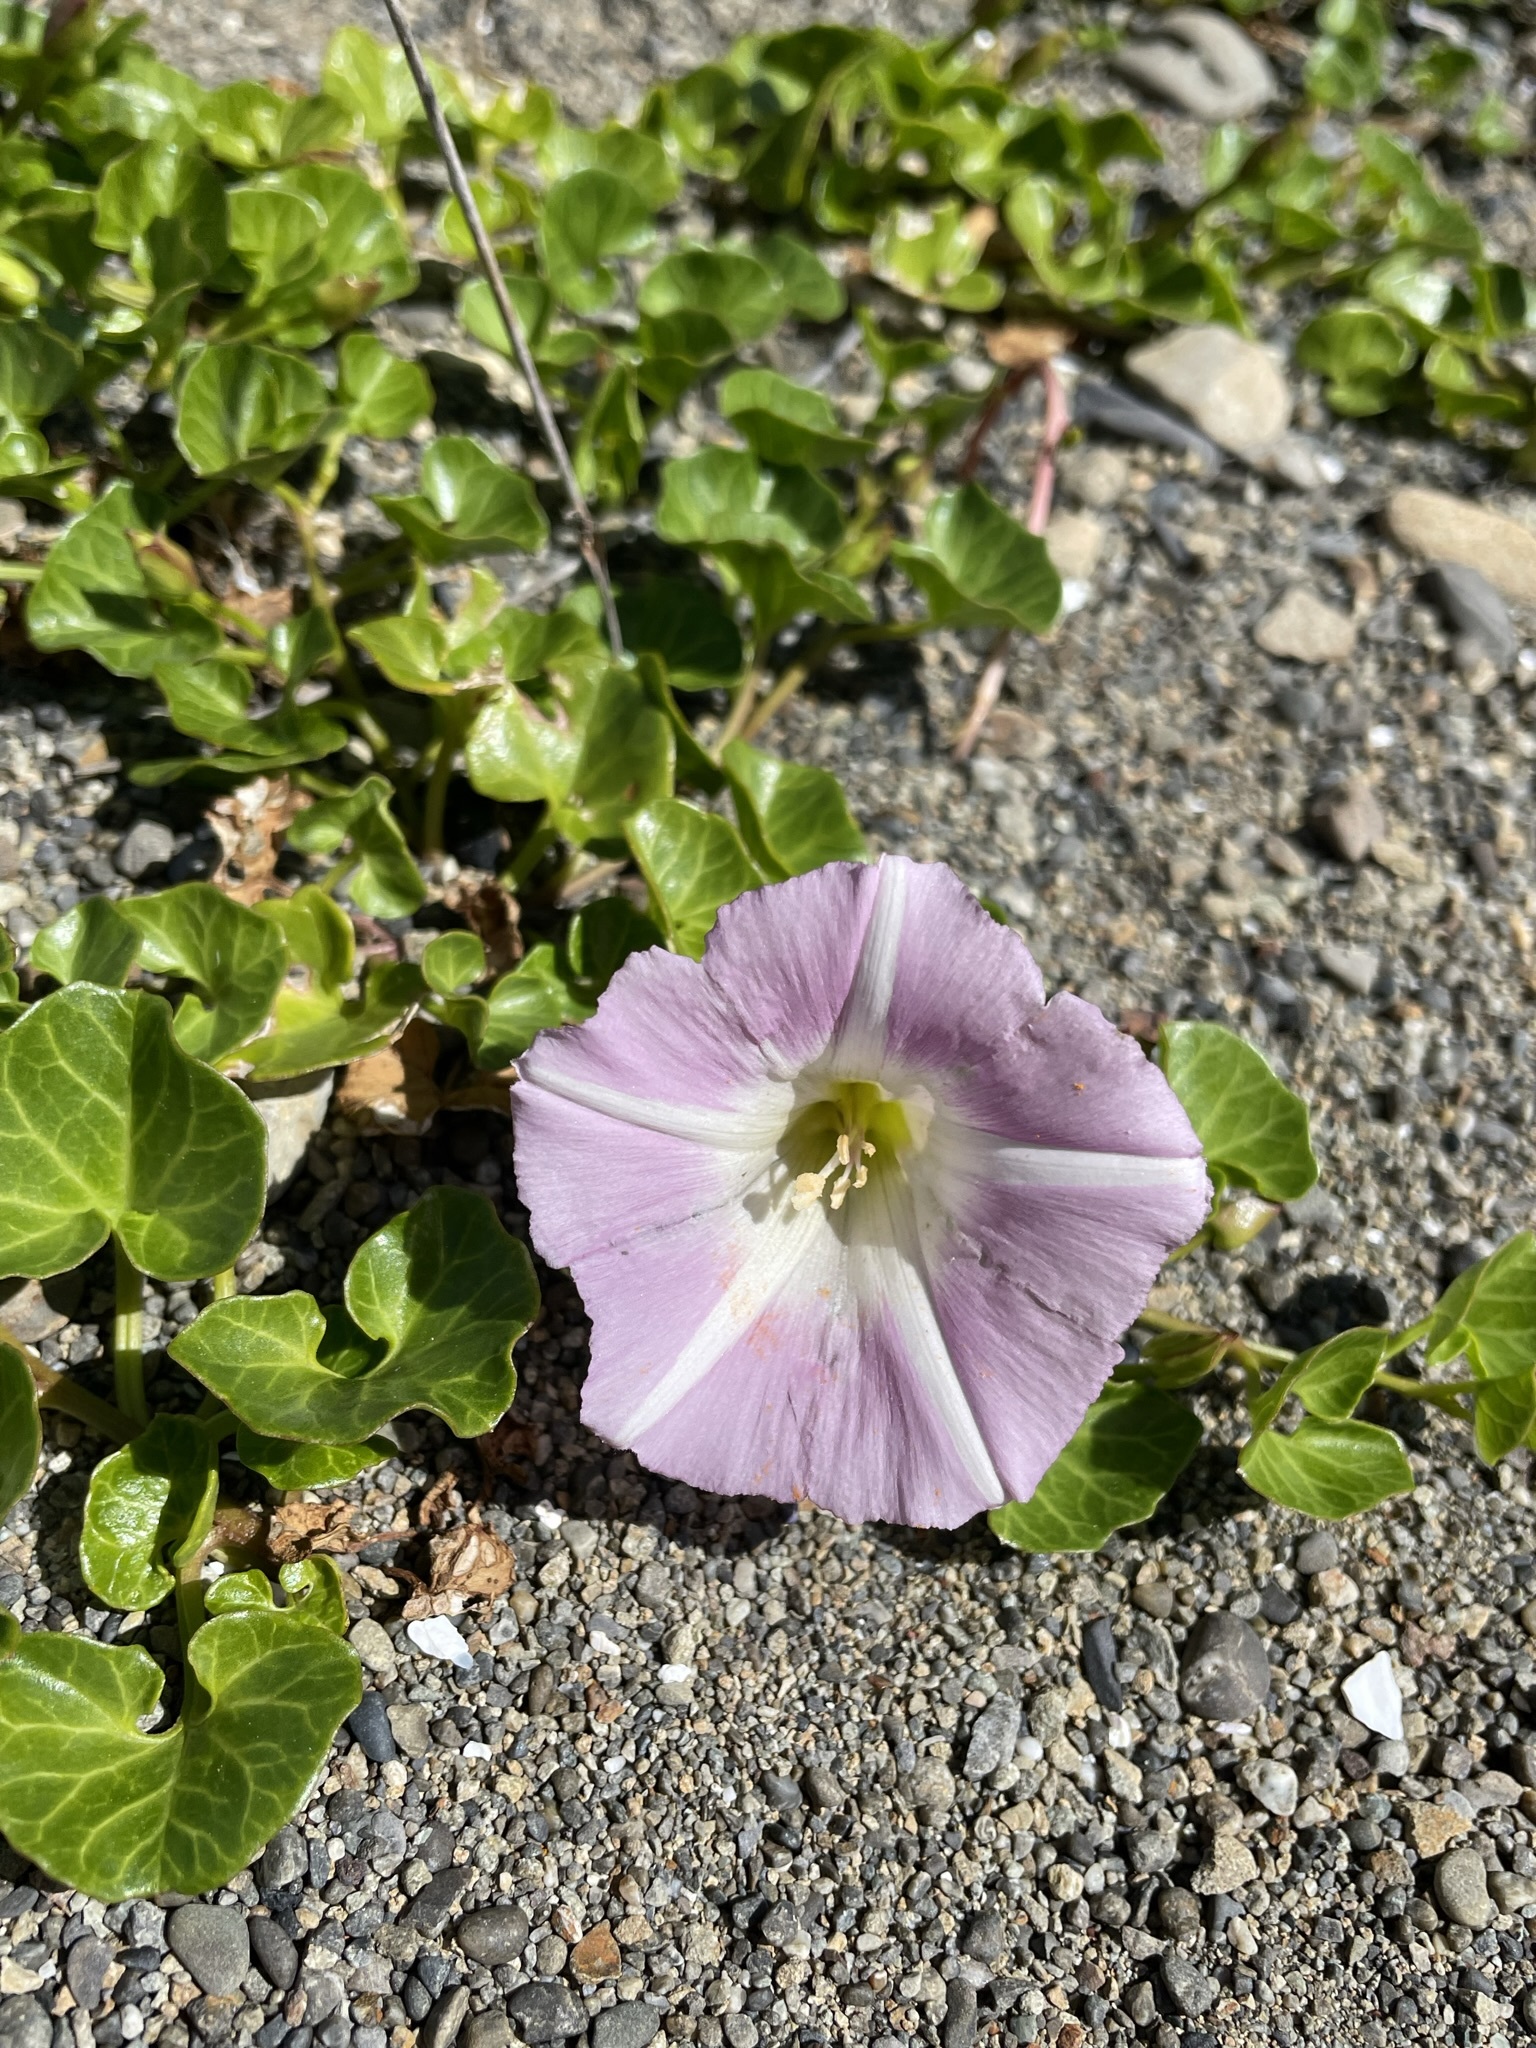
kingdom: Plantae
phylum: Tracheophyta
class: Magnoliopsida
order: Solanales
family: Convolvulaceae
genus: Calystegia
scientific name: Calystegia soldanella
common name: Sea bindweed
